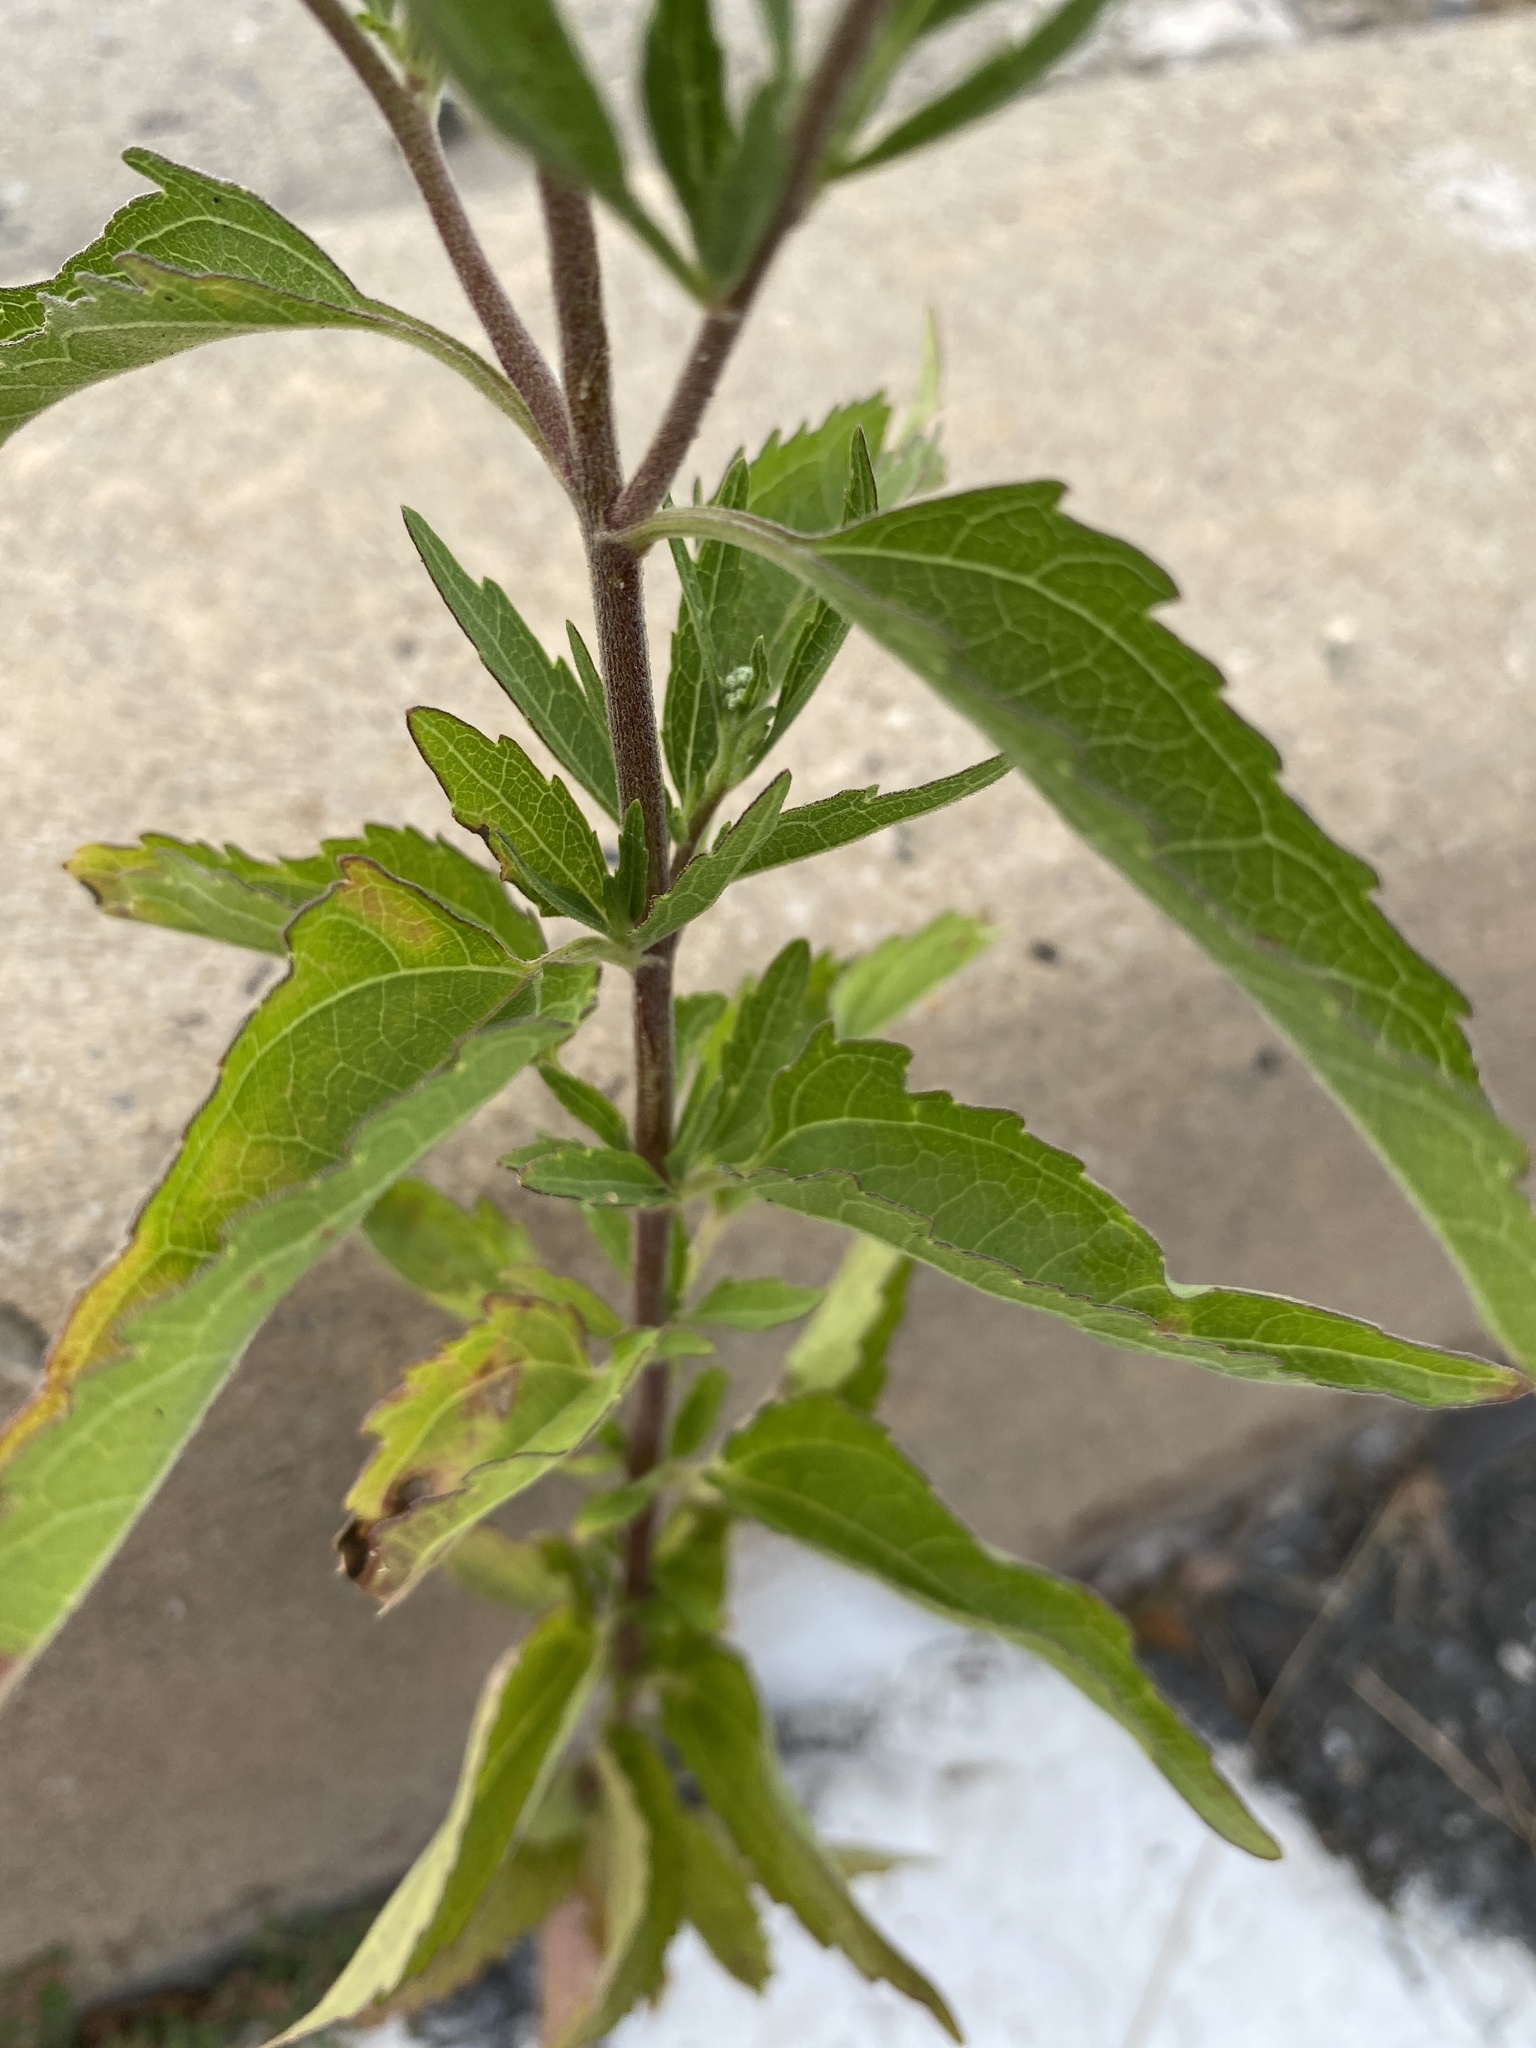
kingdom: Plantae
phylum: Tracheophyta
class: Magnoliopsida
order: Asterales
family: Asteraceae
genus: Eupatorium
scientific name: Eupatorium serotinum
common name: Late boneset
